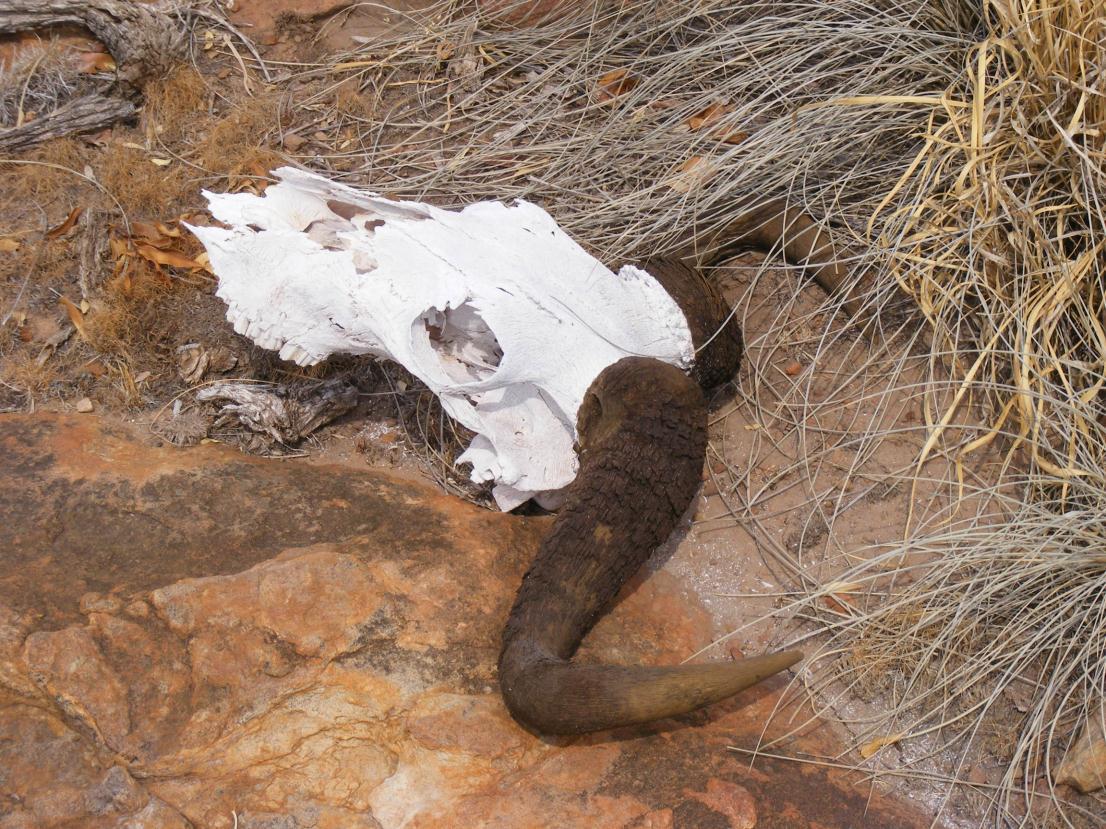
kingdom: Animalia
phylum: Chordata
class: Mammalia
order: Artiodactyla
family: Bovidae
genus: Connochaetes
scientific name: Connochaetes taurinus
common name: Blue wildebeest
